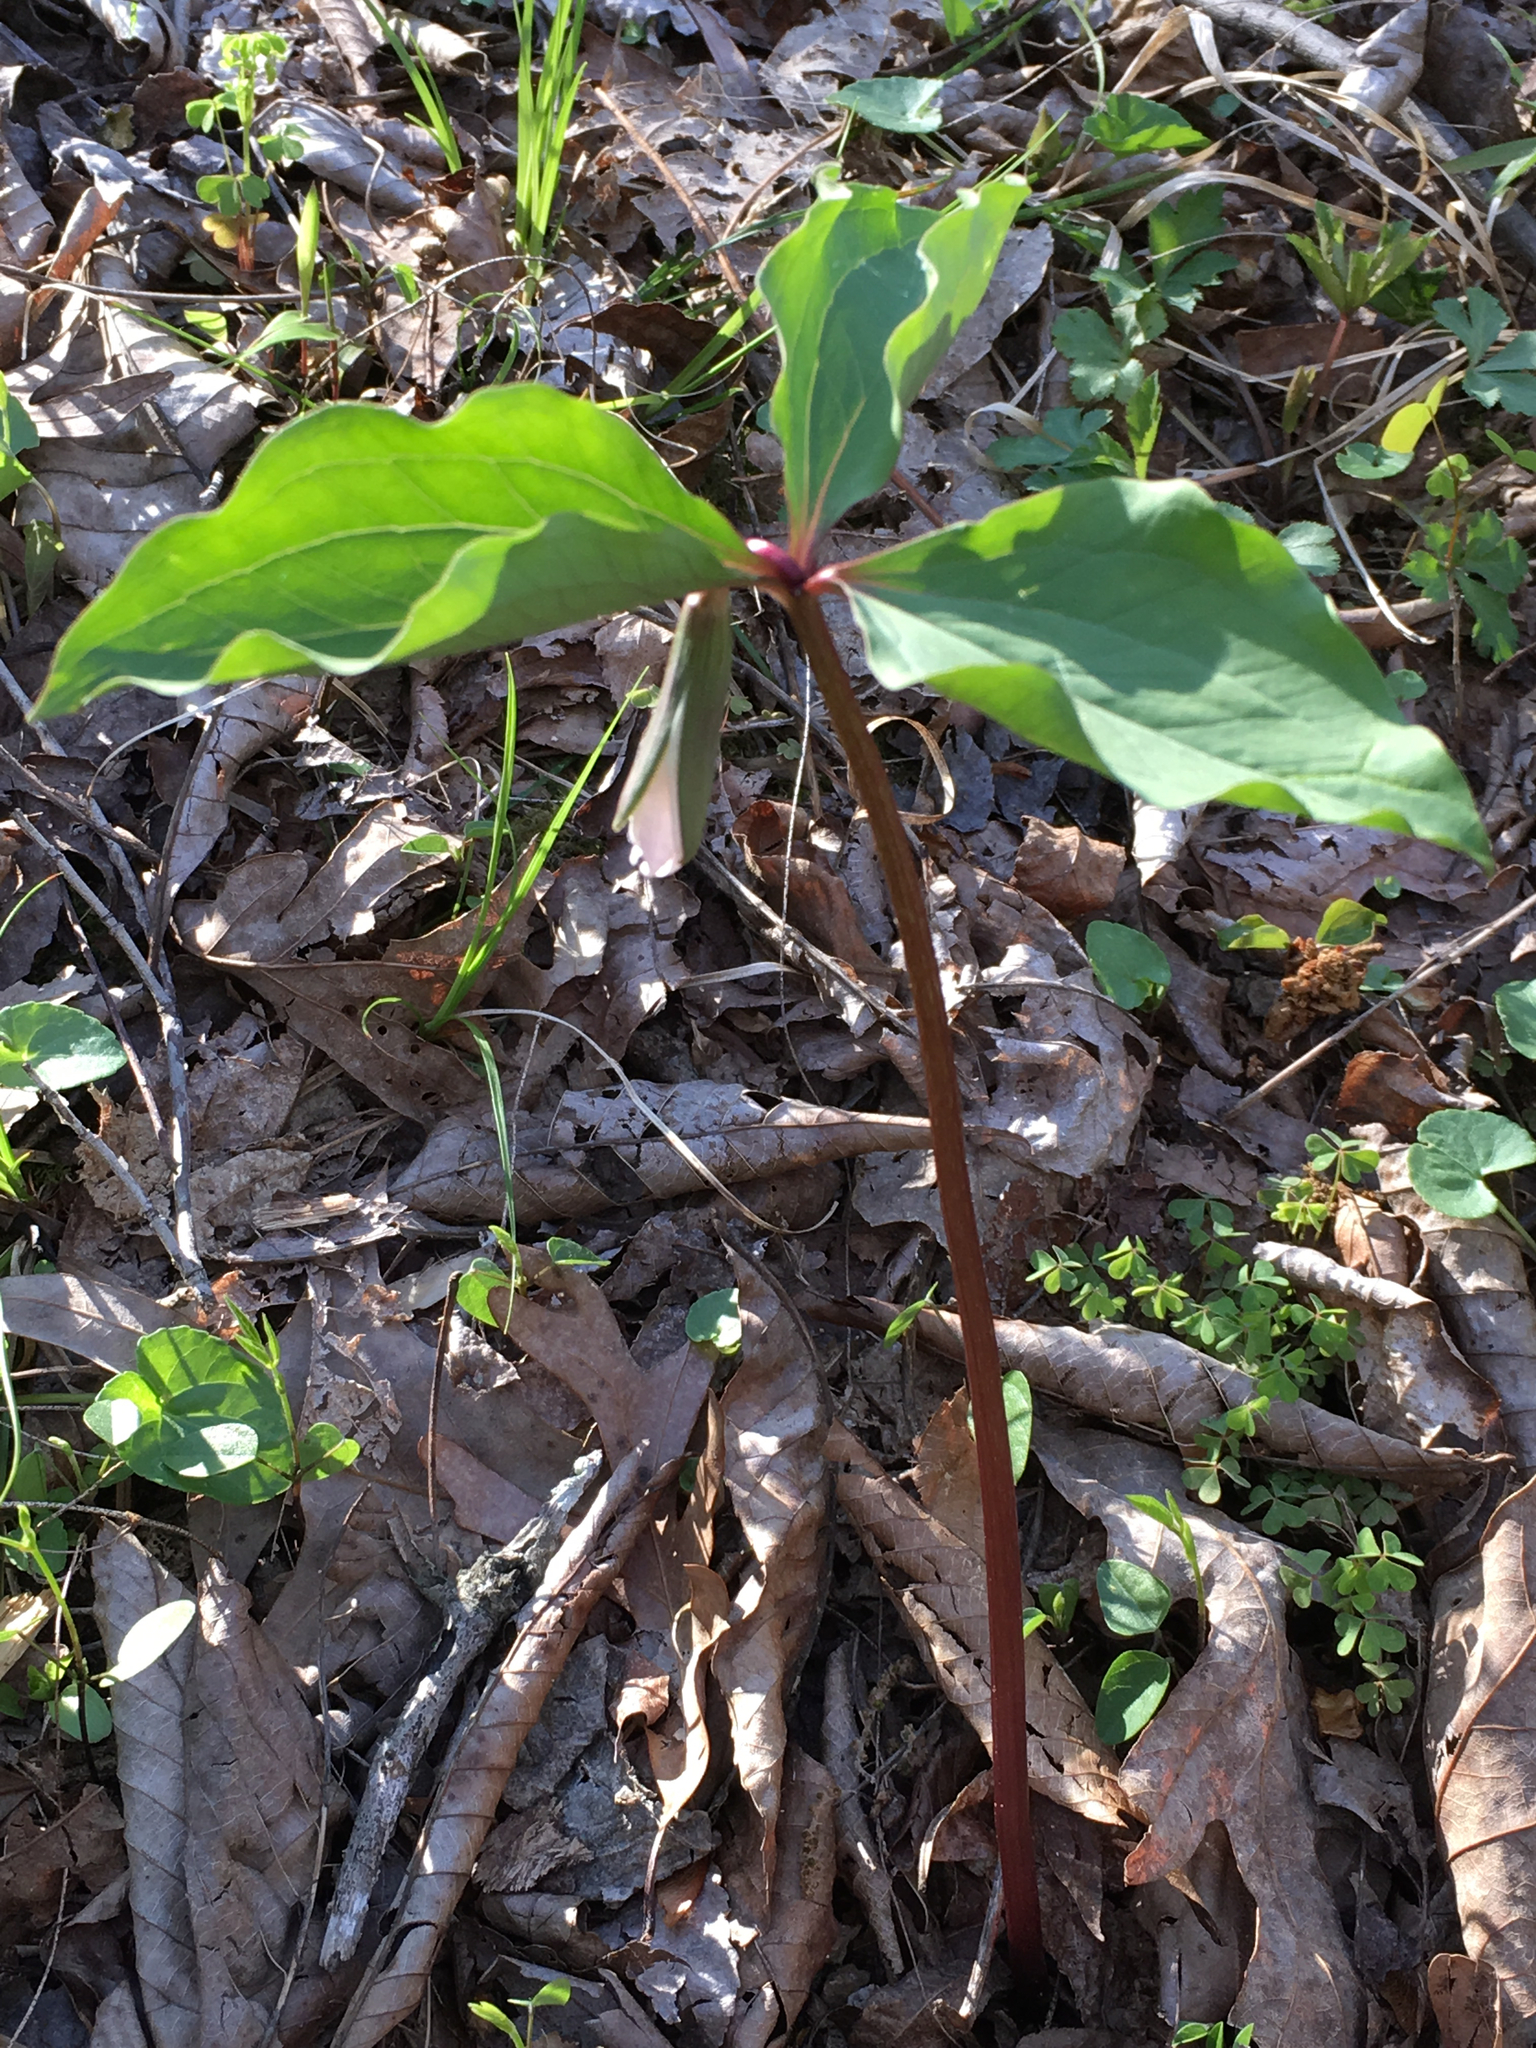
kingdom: Plantae
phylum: Tracheophyta
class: Liliopsida
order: Liliales
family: Melanthiaceae
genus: Trillium
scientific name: Trillium catesbaei
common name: Bashful trillium
